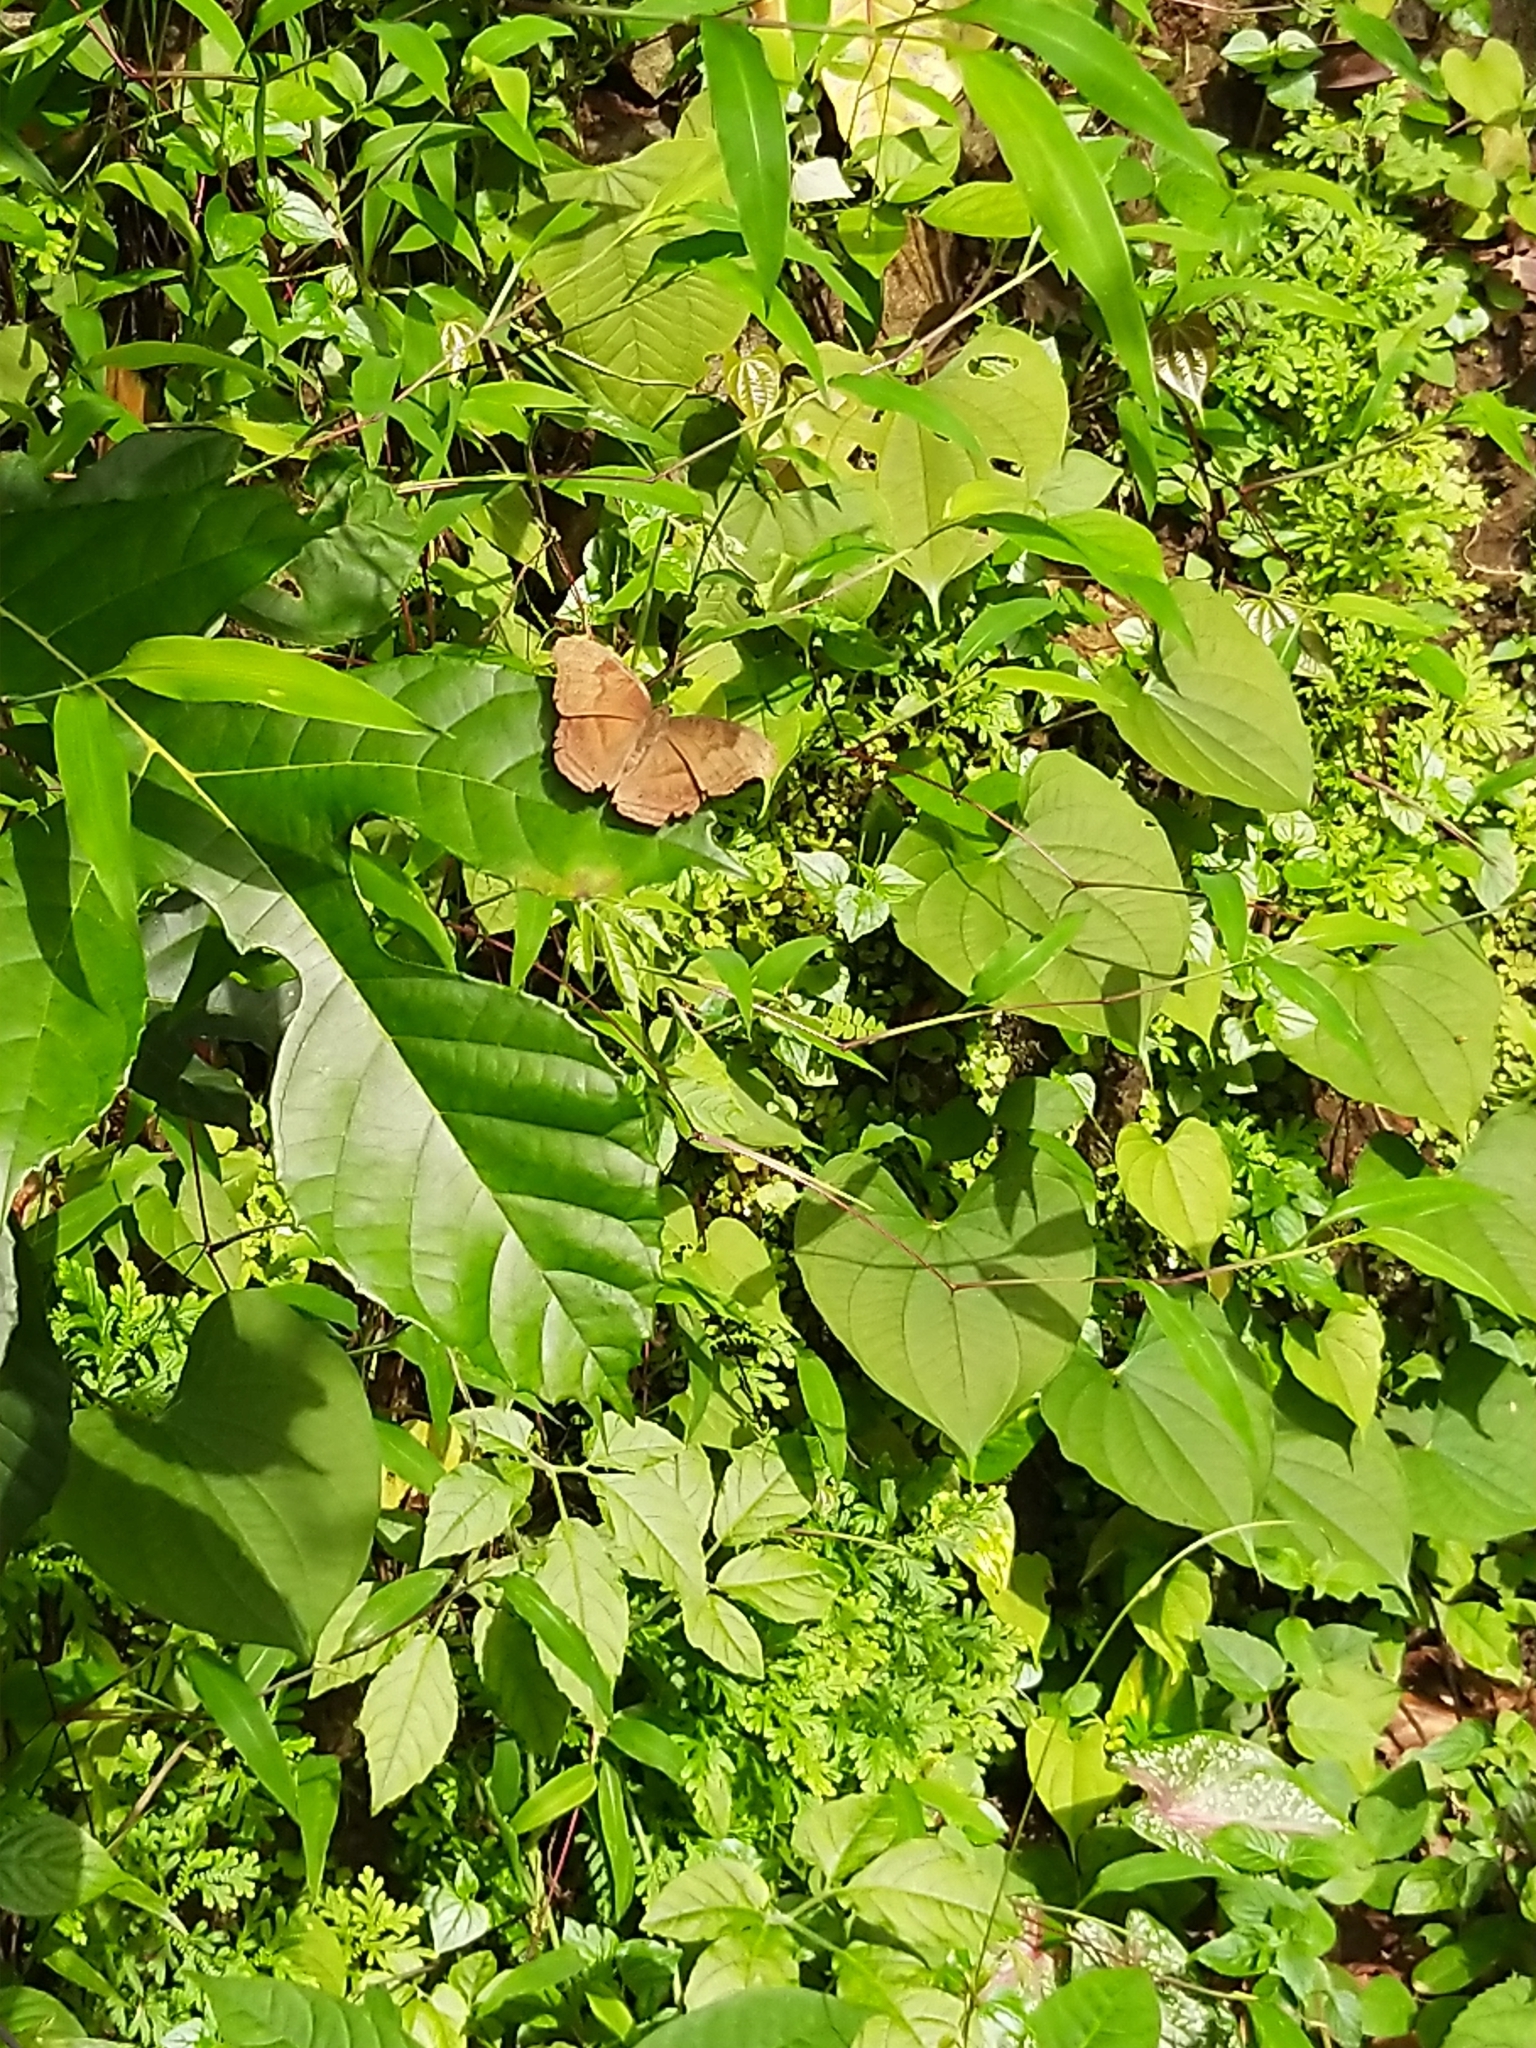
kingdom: Animalia
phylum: Arthropoda
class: Insecta
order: Lepidoptera
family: Nymphalidae
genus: Junonia
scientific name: Junonia iphita
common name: Chocolate pansy
